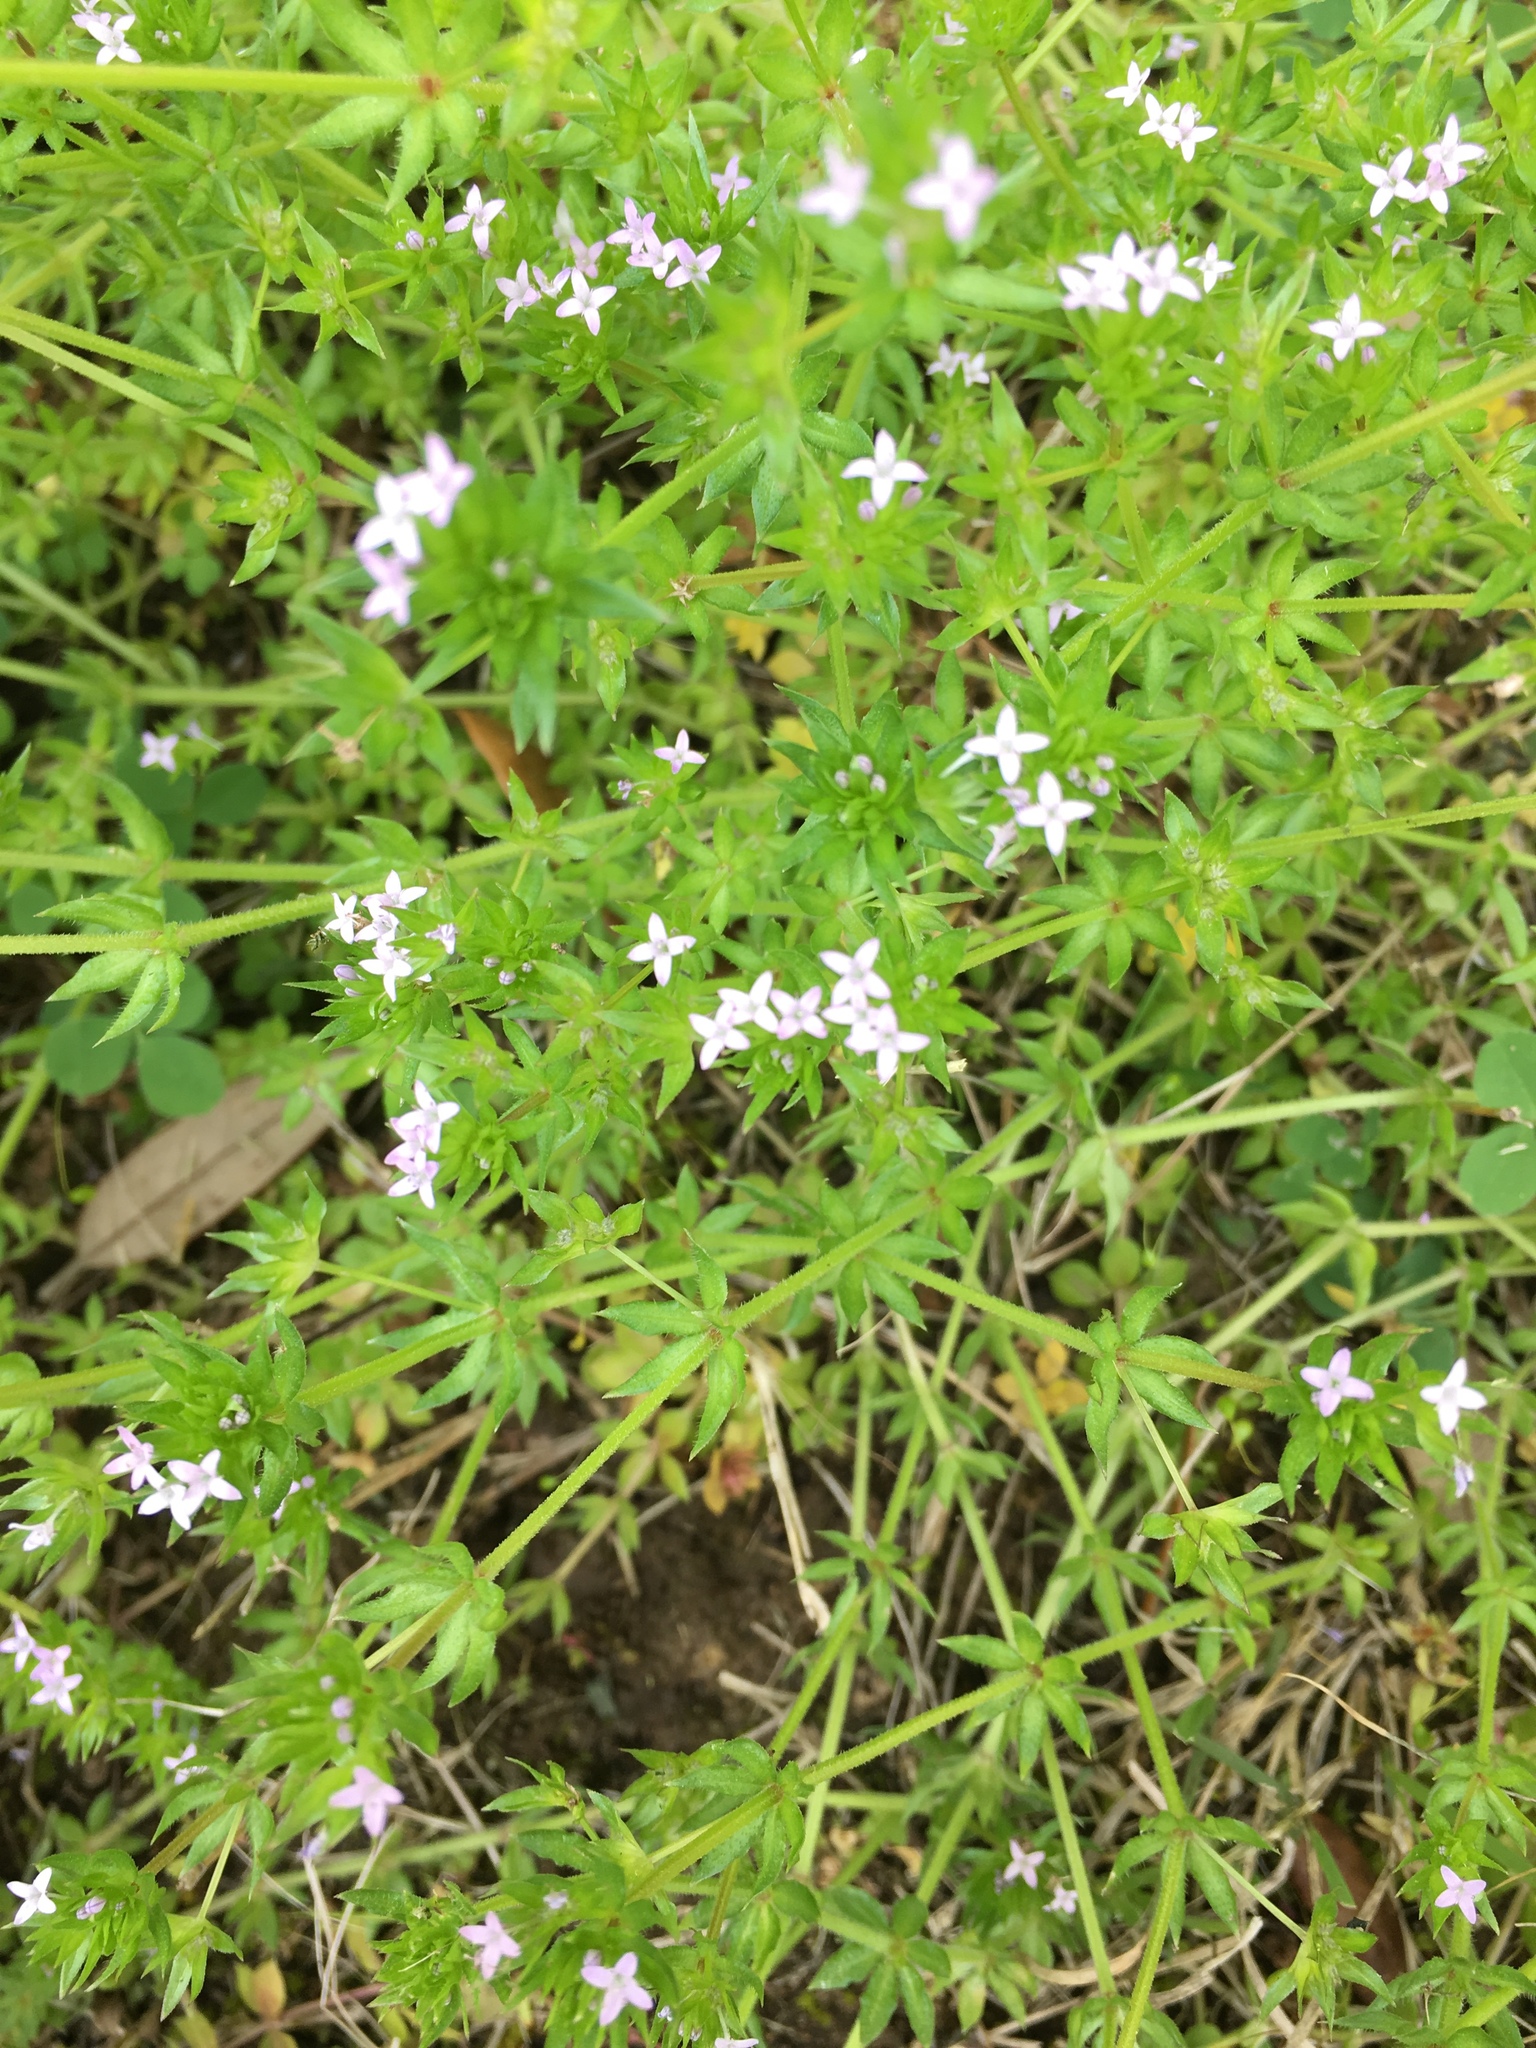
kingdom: Plantae
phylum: Tracheophyta
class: Magnoliopsida
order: Gentianales
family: Rubiaceae
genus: Sherardia
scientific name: Sherardia arvensis
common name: Field madder
